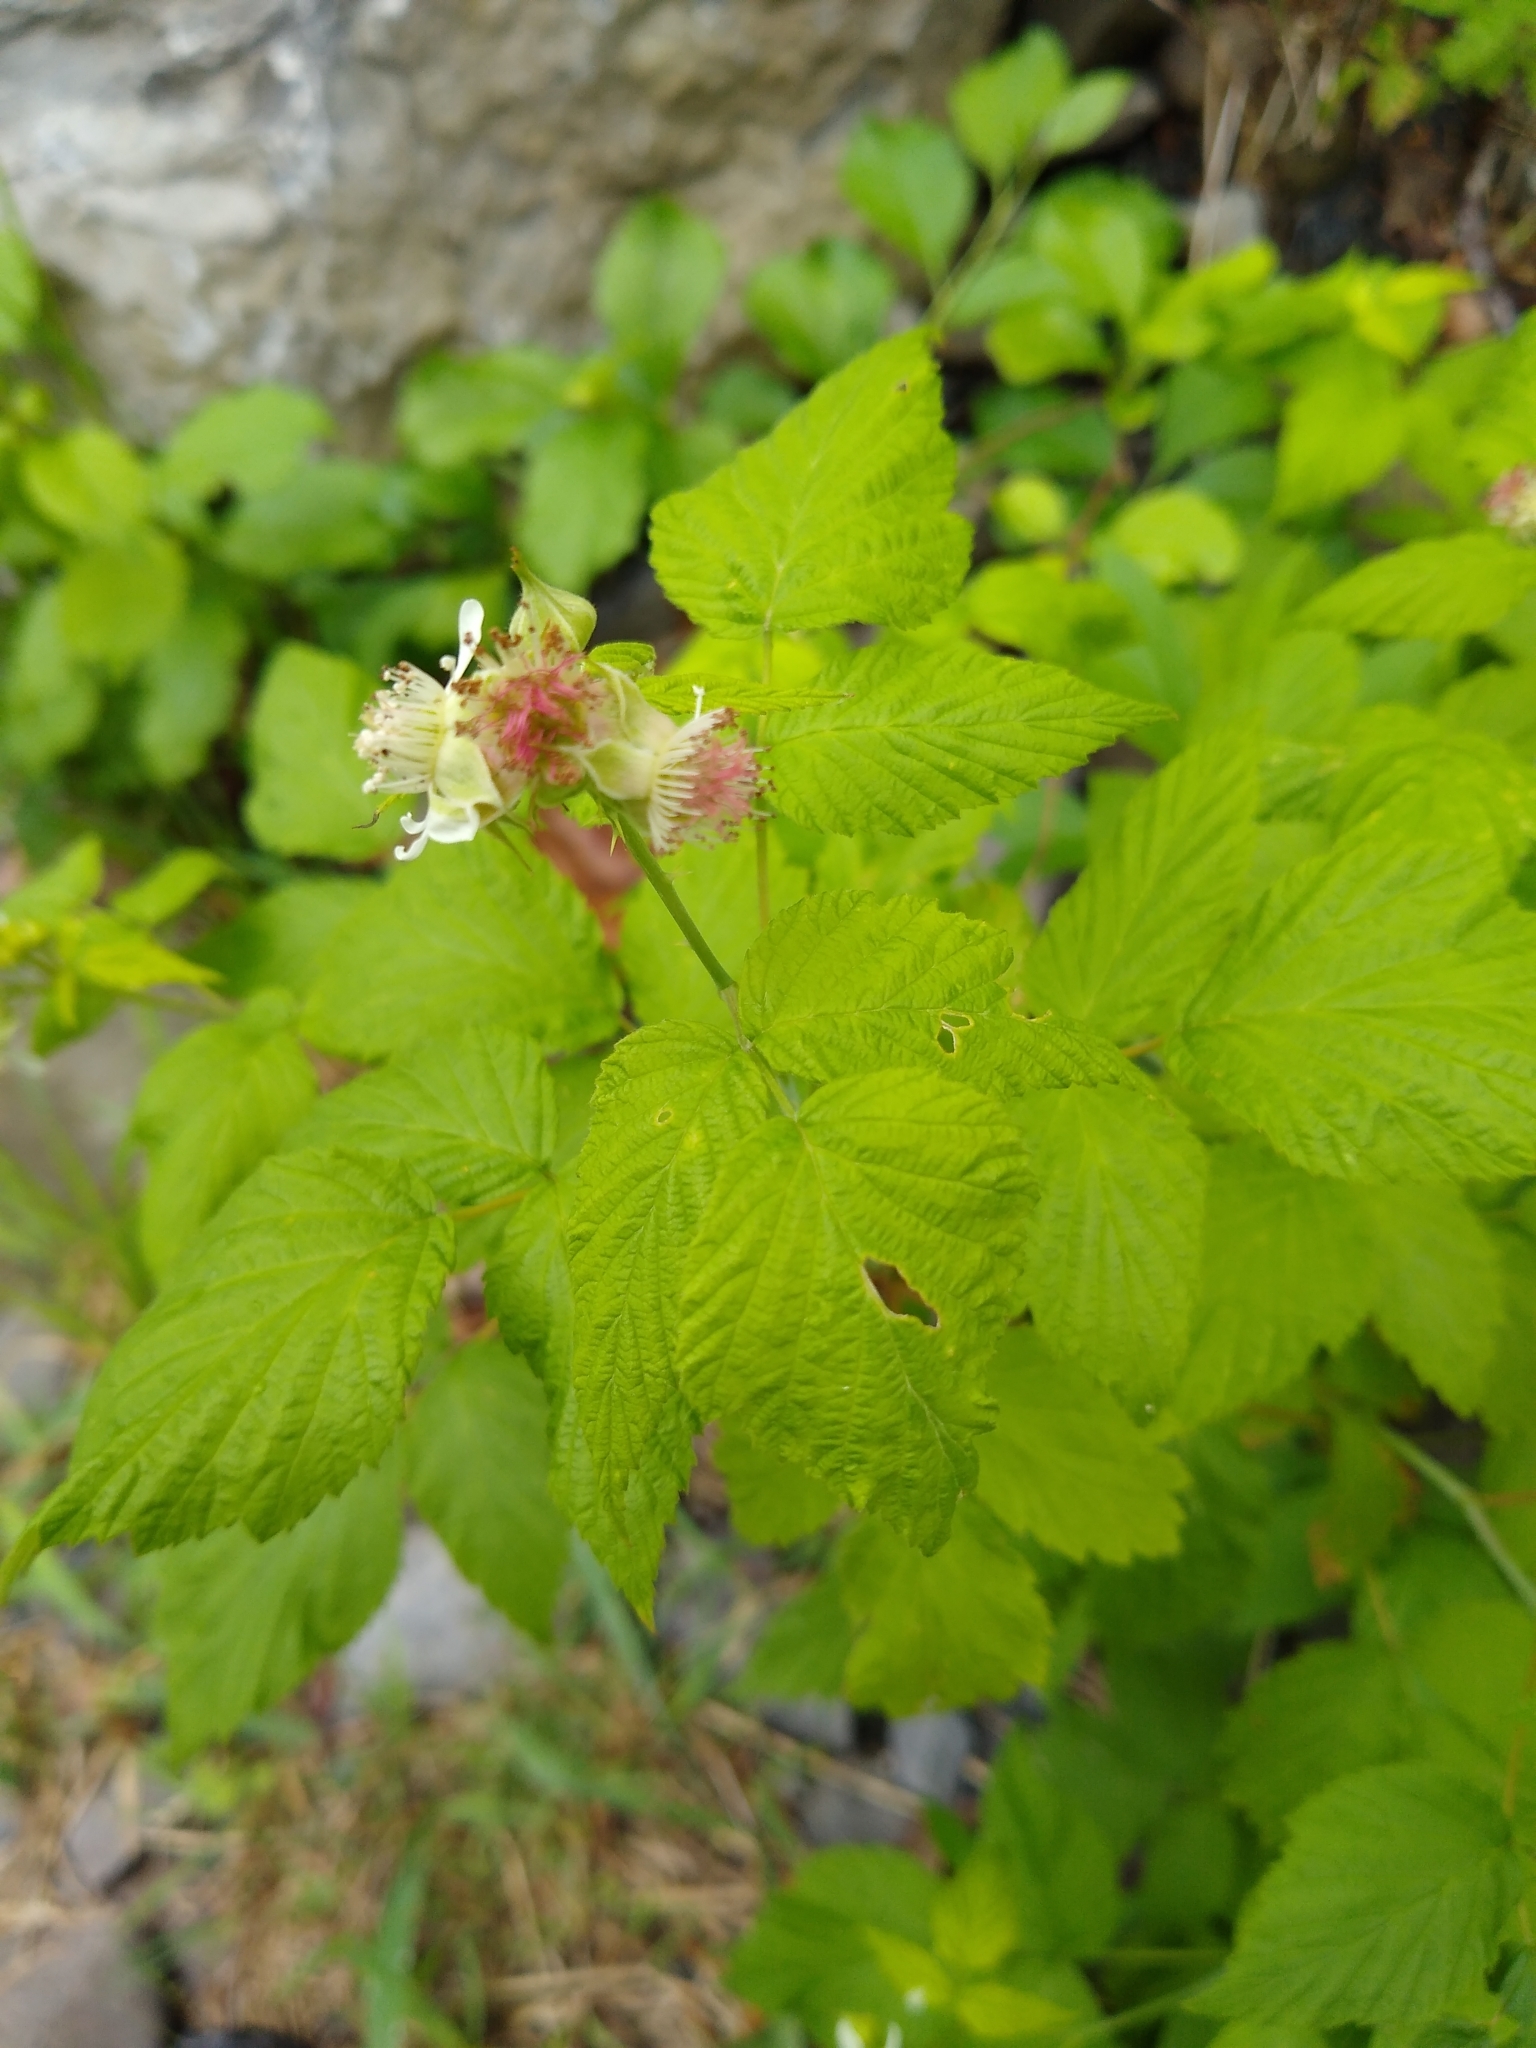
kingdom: Plantae
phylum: Tracheophyta
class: Magnoliopsida
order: Rosales
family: Rosaceae
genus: Rubus
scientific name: Rubus occidentalis
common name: Black raspberry
